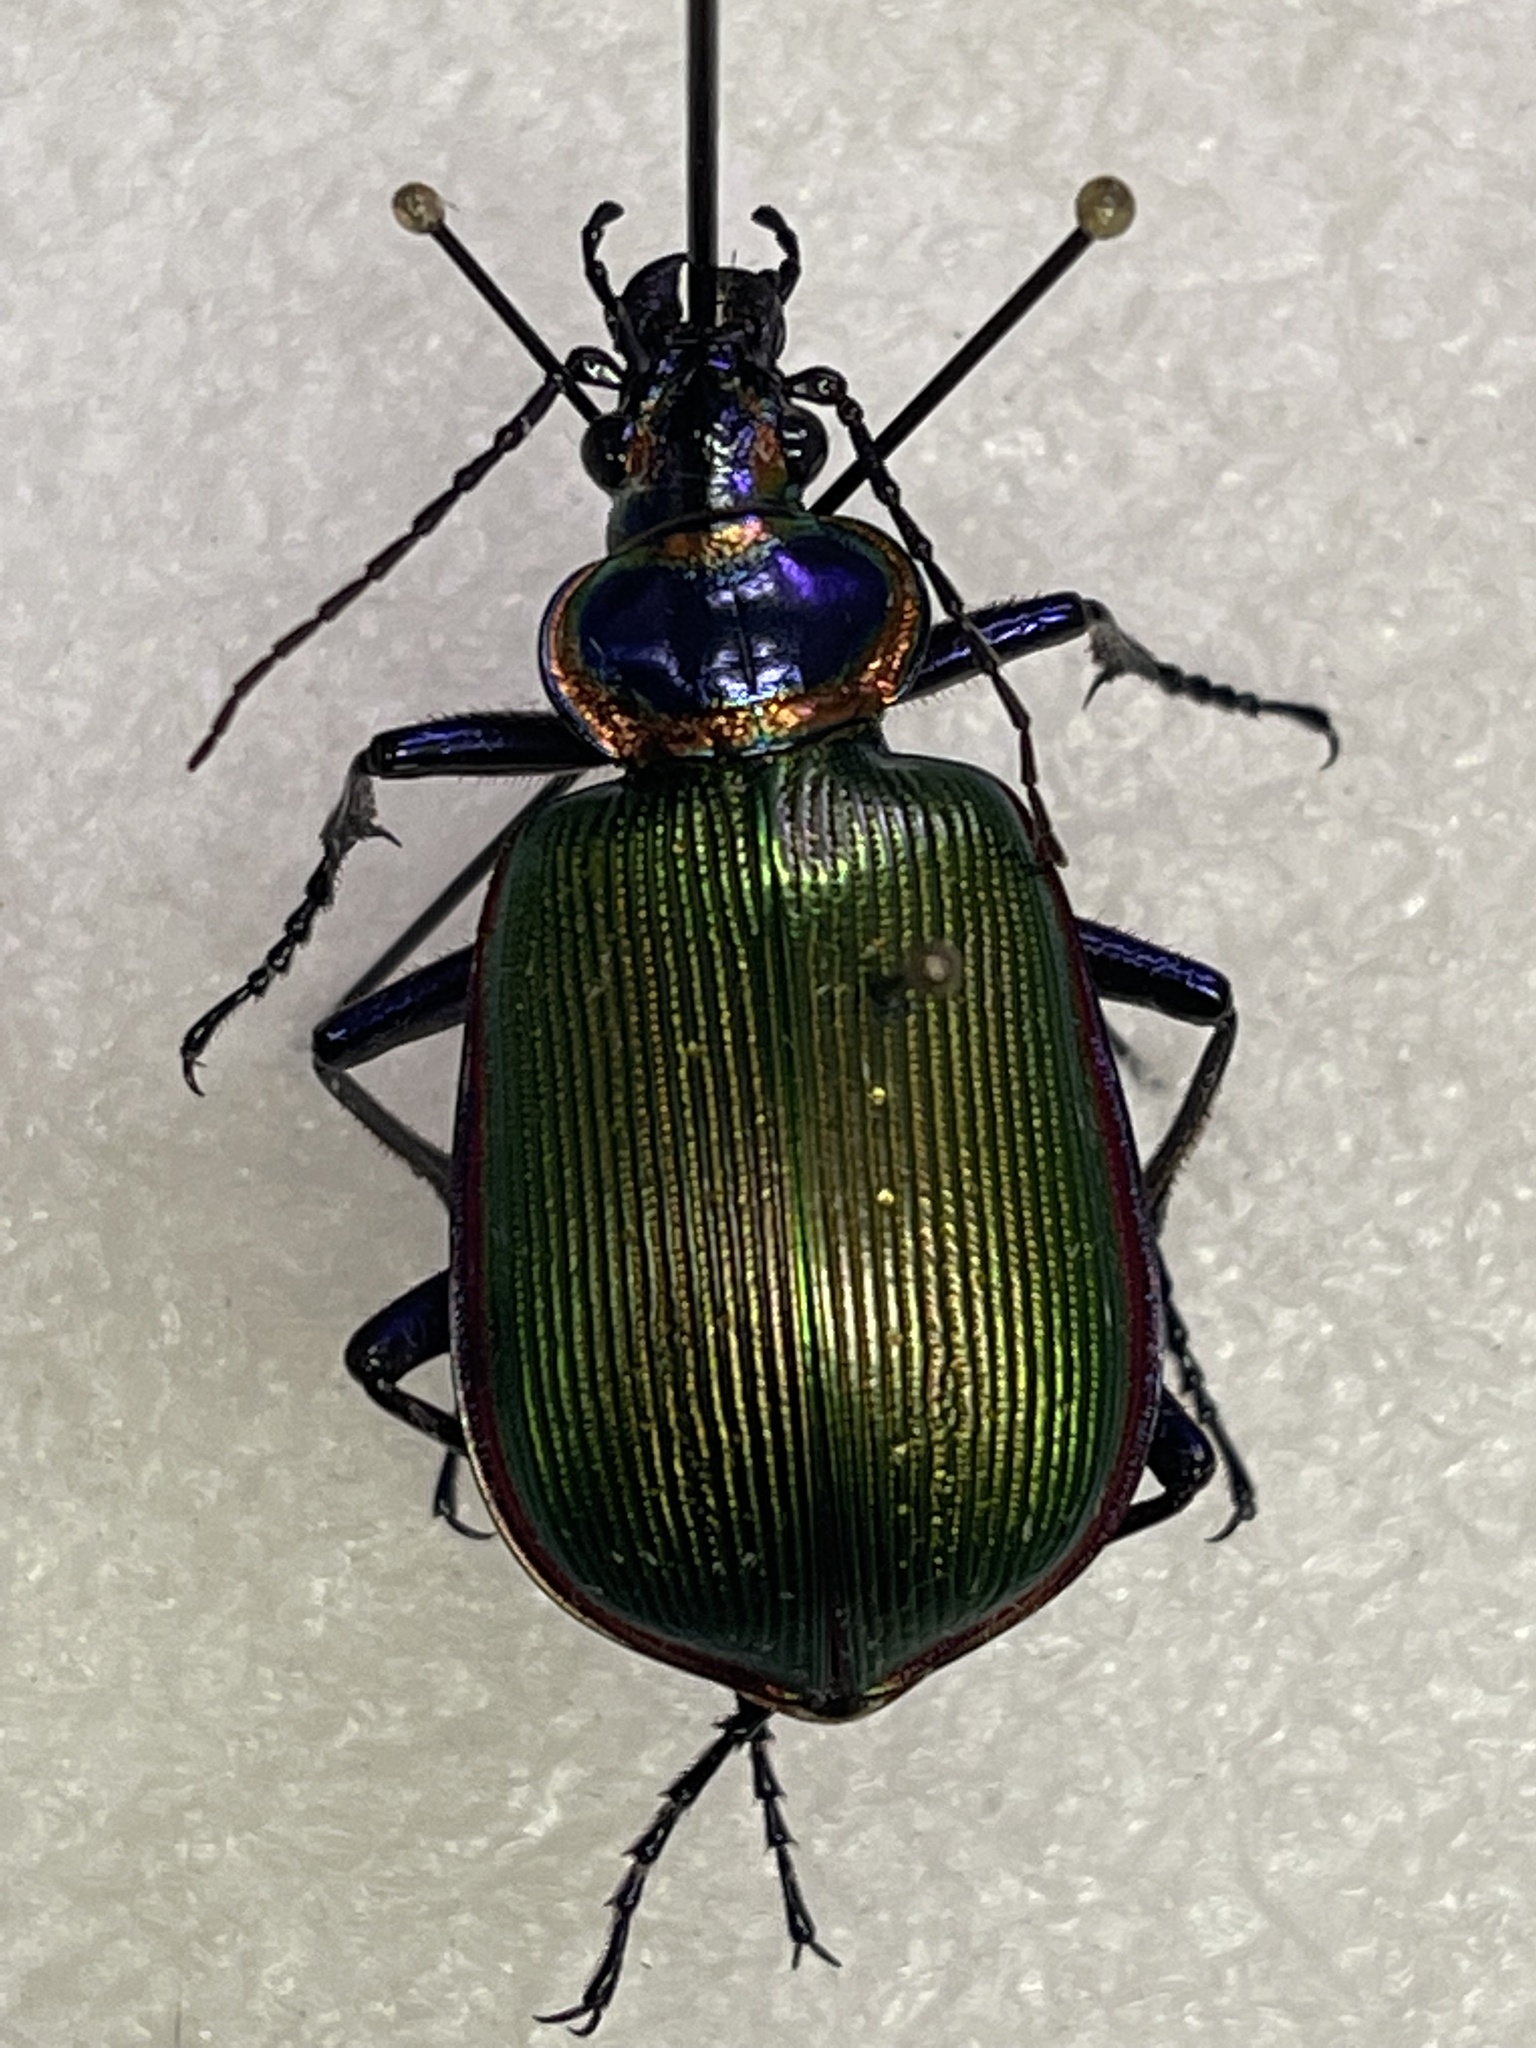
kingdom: Animalia
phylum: Arthropoda
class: Insecta
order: Coleoptera
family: Carabidae
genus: Calosoma
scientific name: Calosoma scrutator
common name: Fiery searcher beetle
